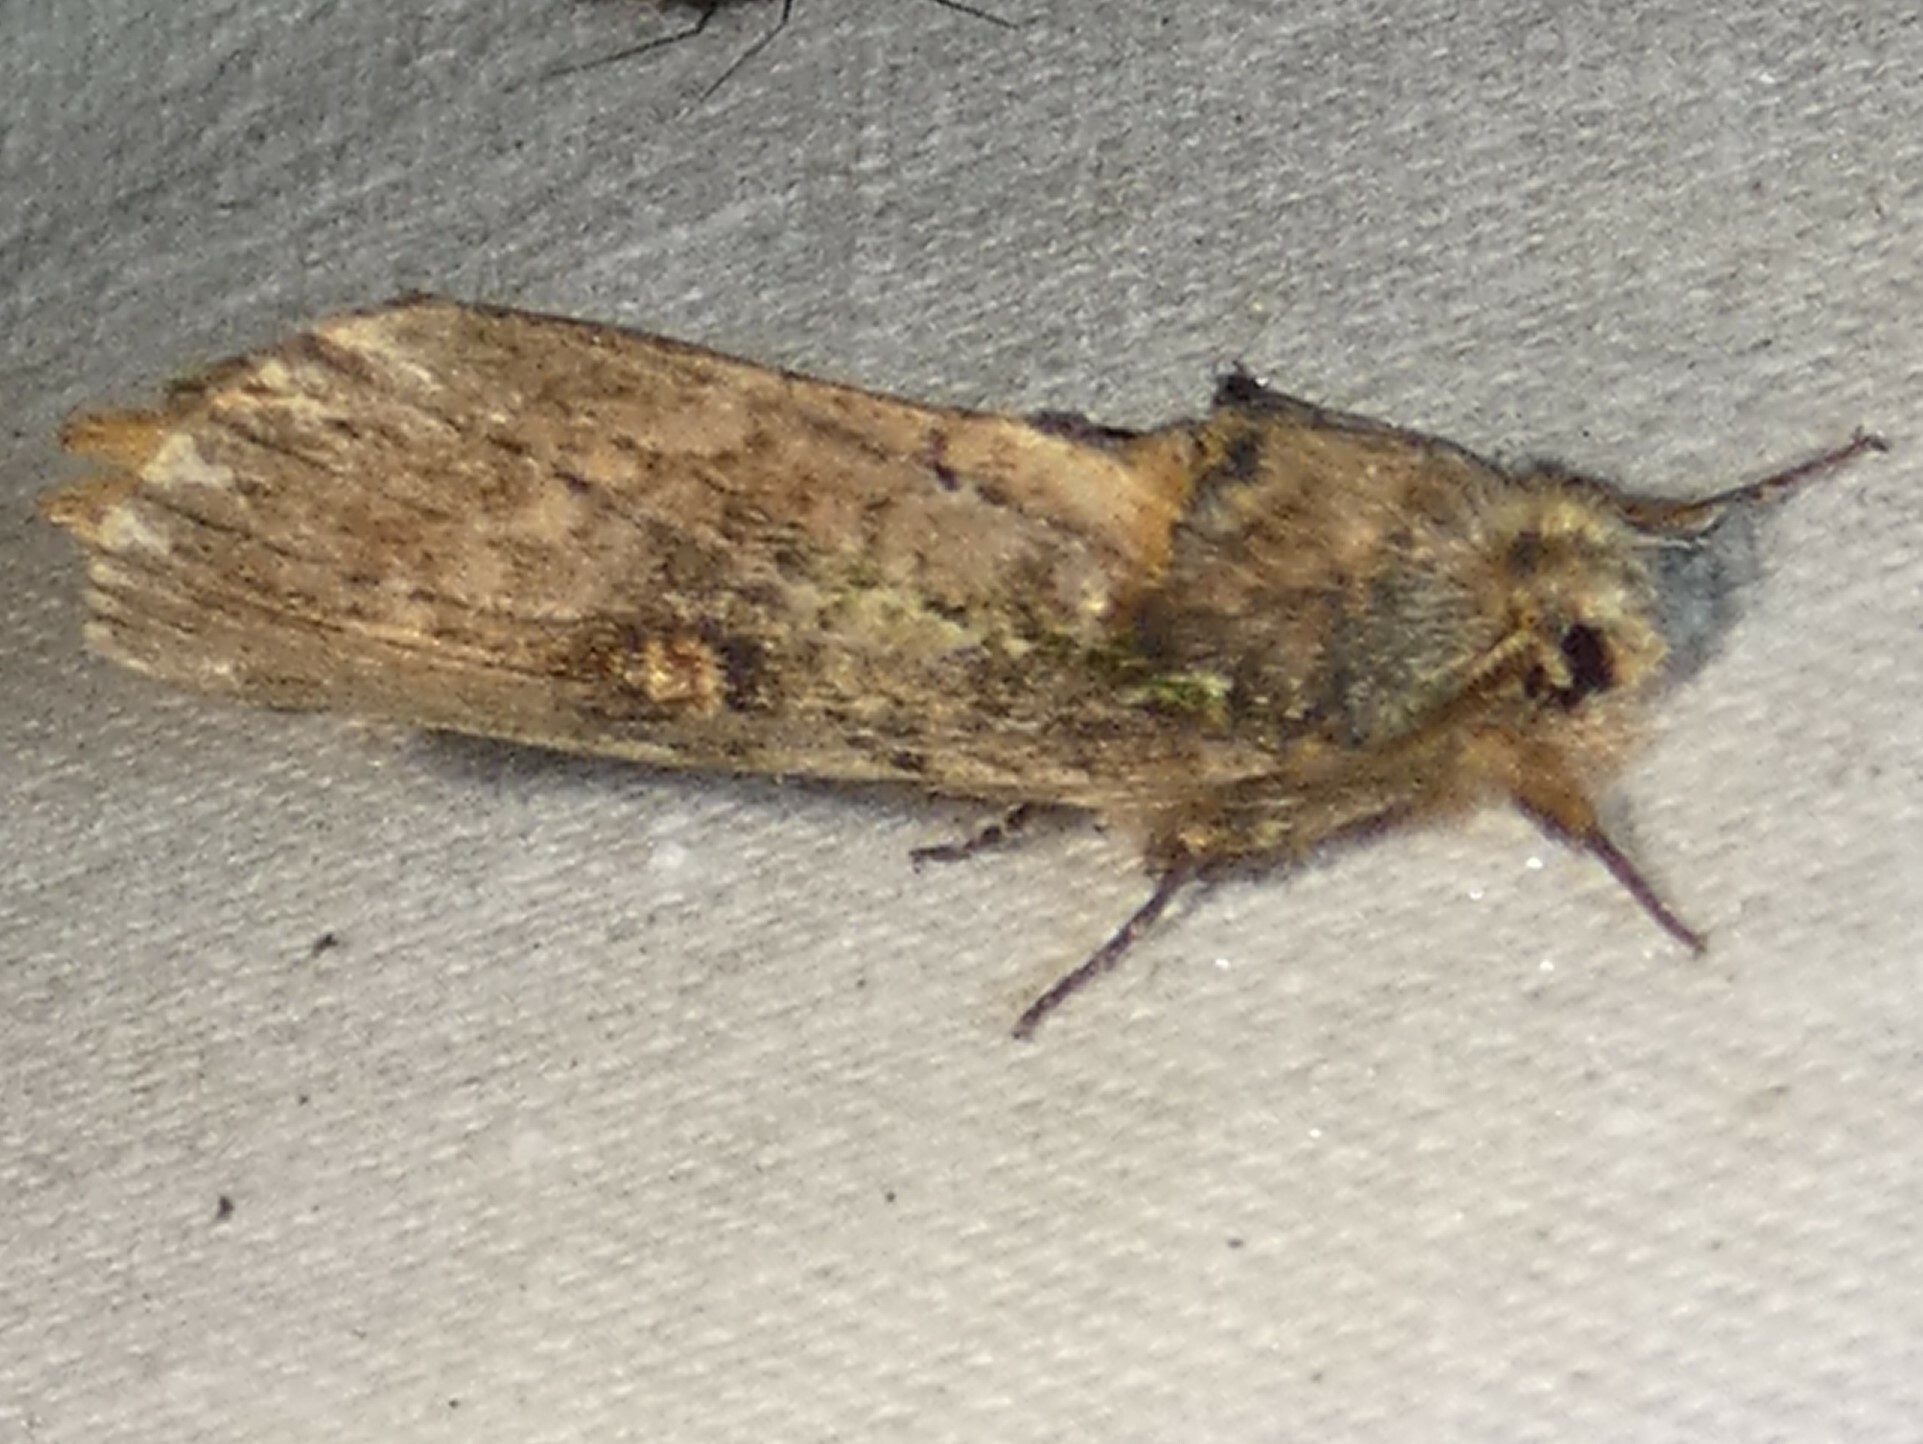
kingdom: Animalia
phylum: Arthropoda
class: Insecta
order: Lepidoptera
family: Notodontidae
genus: Schizura
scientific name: Schizura ipomaeae
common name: Morning-glory prominent
